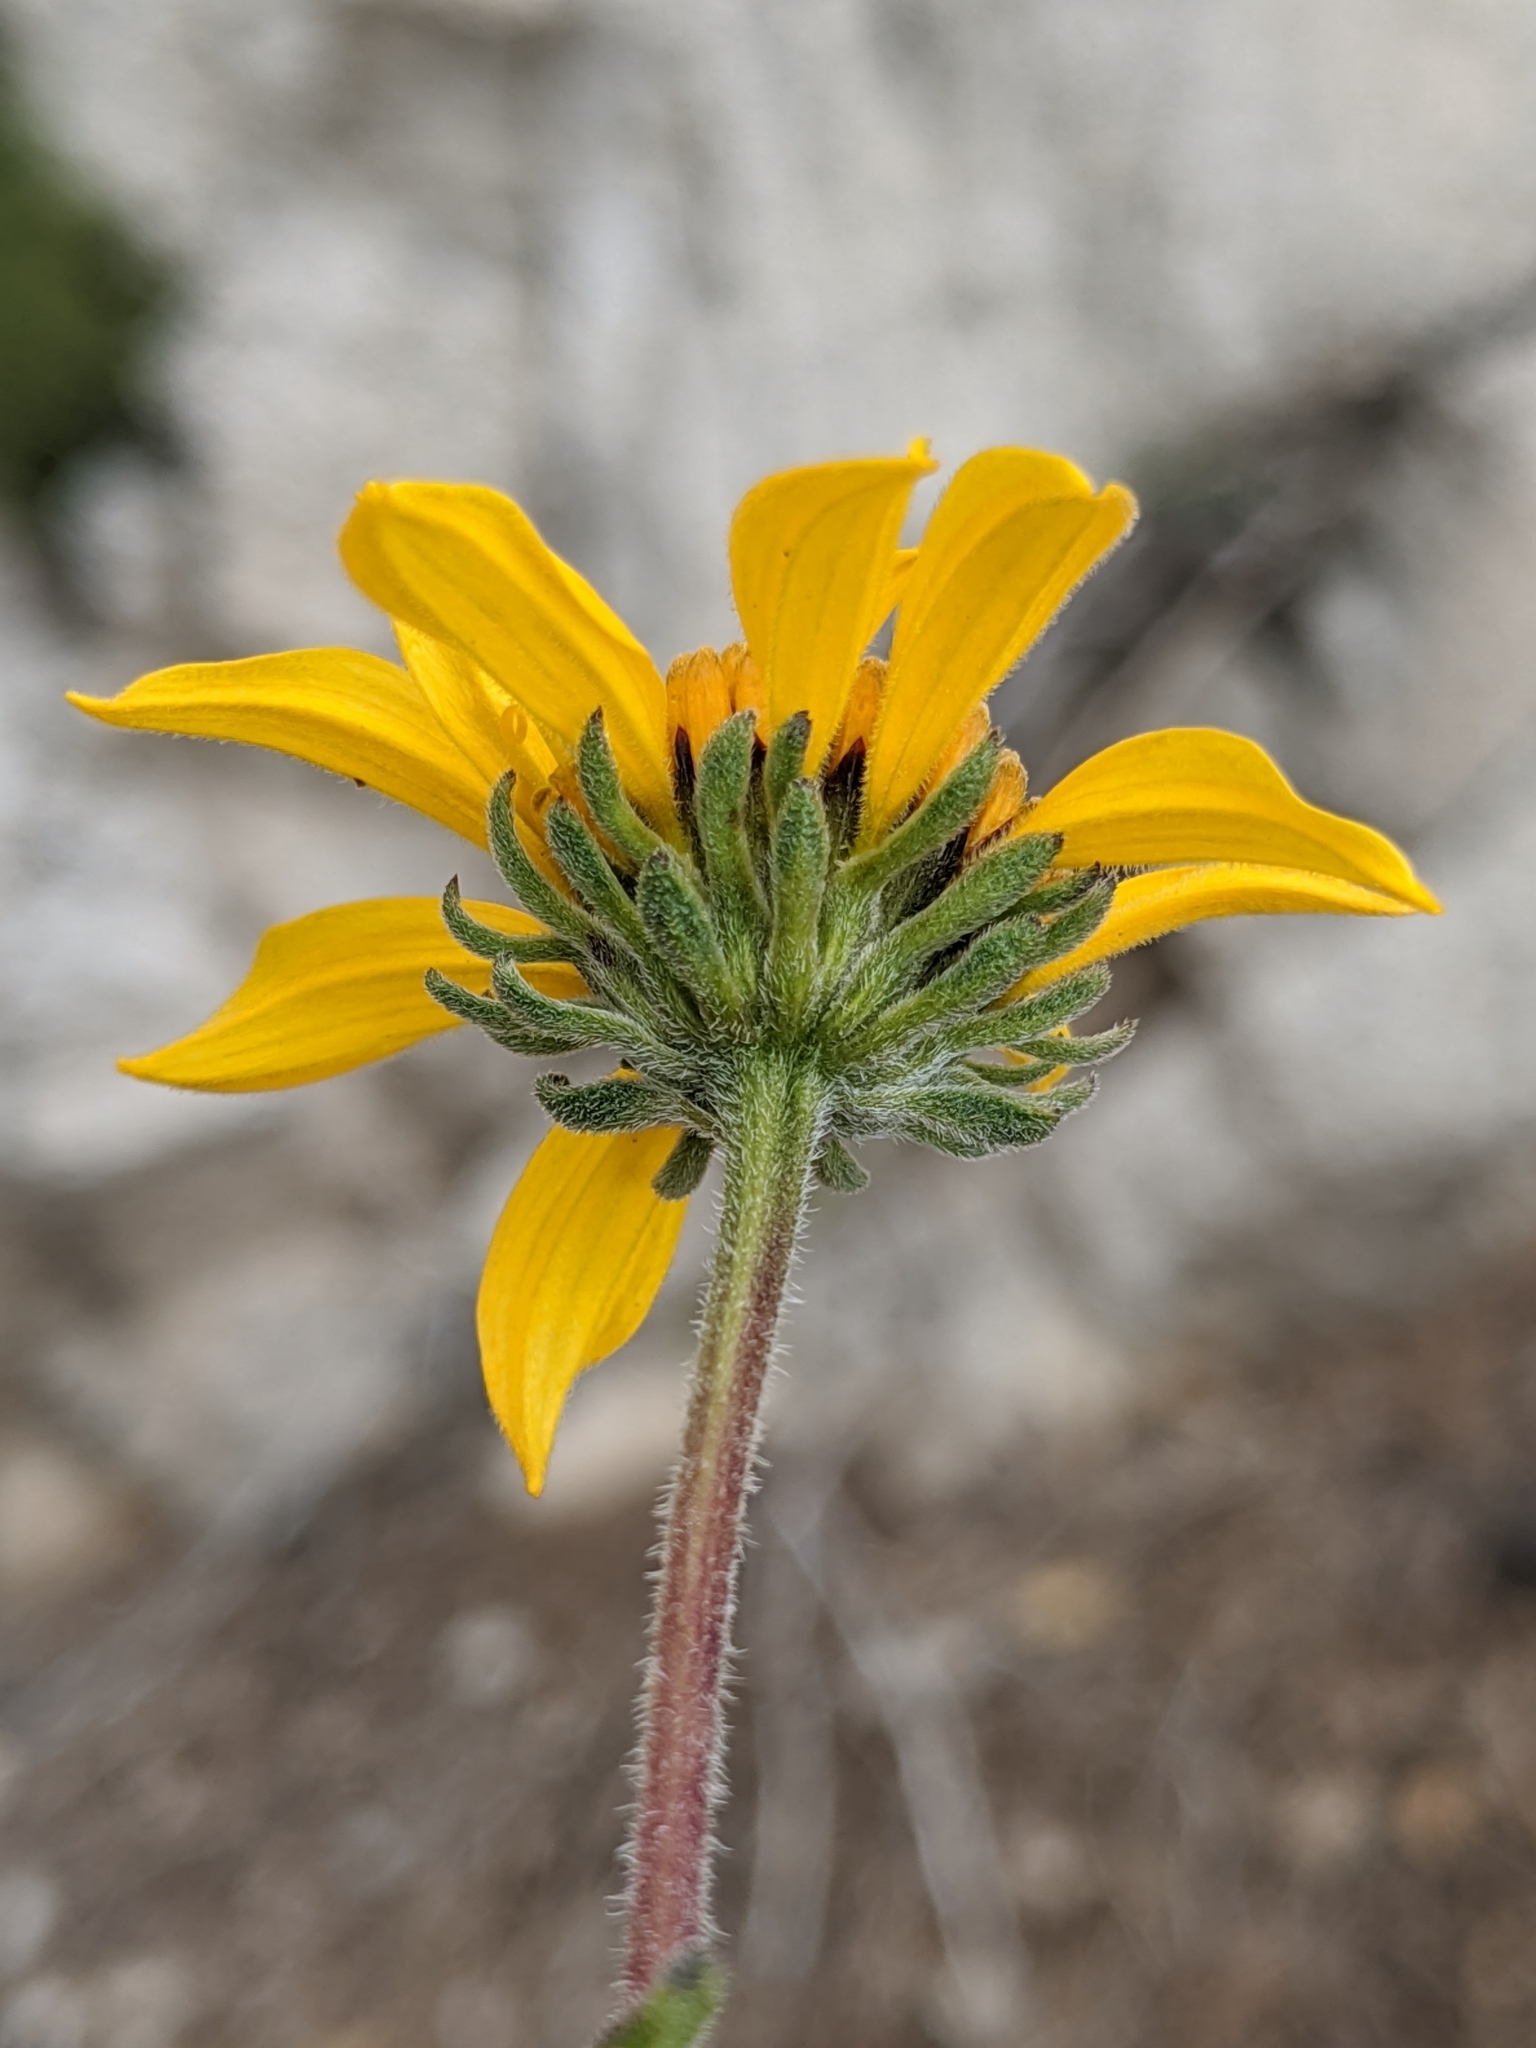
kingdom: Plantae
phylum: Tracheophyta
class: Magnoliopsida
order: Asterales
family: Asteraceae
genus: Bahiopsis
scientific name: Bahiopsis parishii
